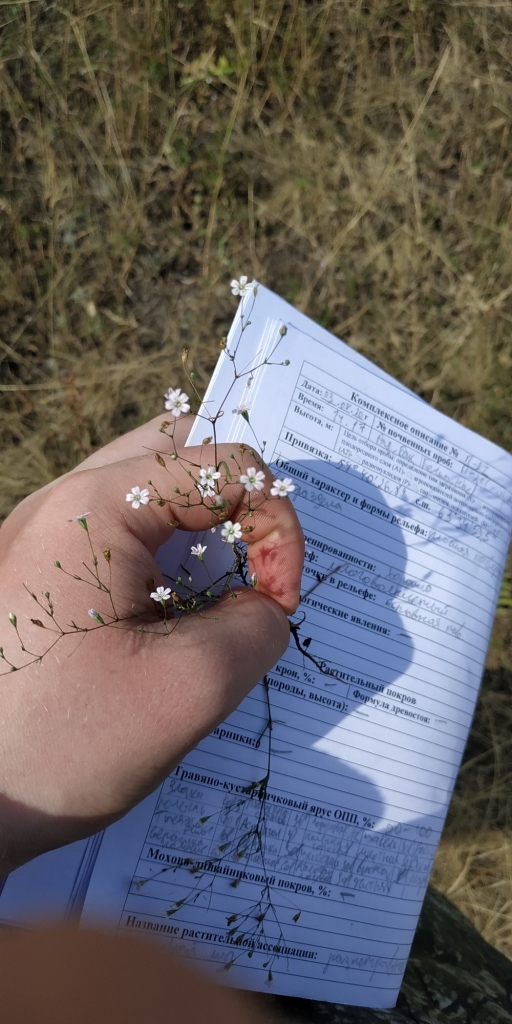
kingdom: Plantae
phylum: Tracheophyta
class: Magnoliopsida
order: Caryophyllales
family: Caryophyllaceae
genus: Psammophiliella
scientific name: Psammophiliella muralis
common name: Cushion baby's-breath
